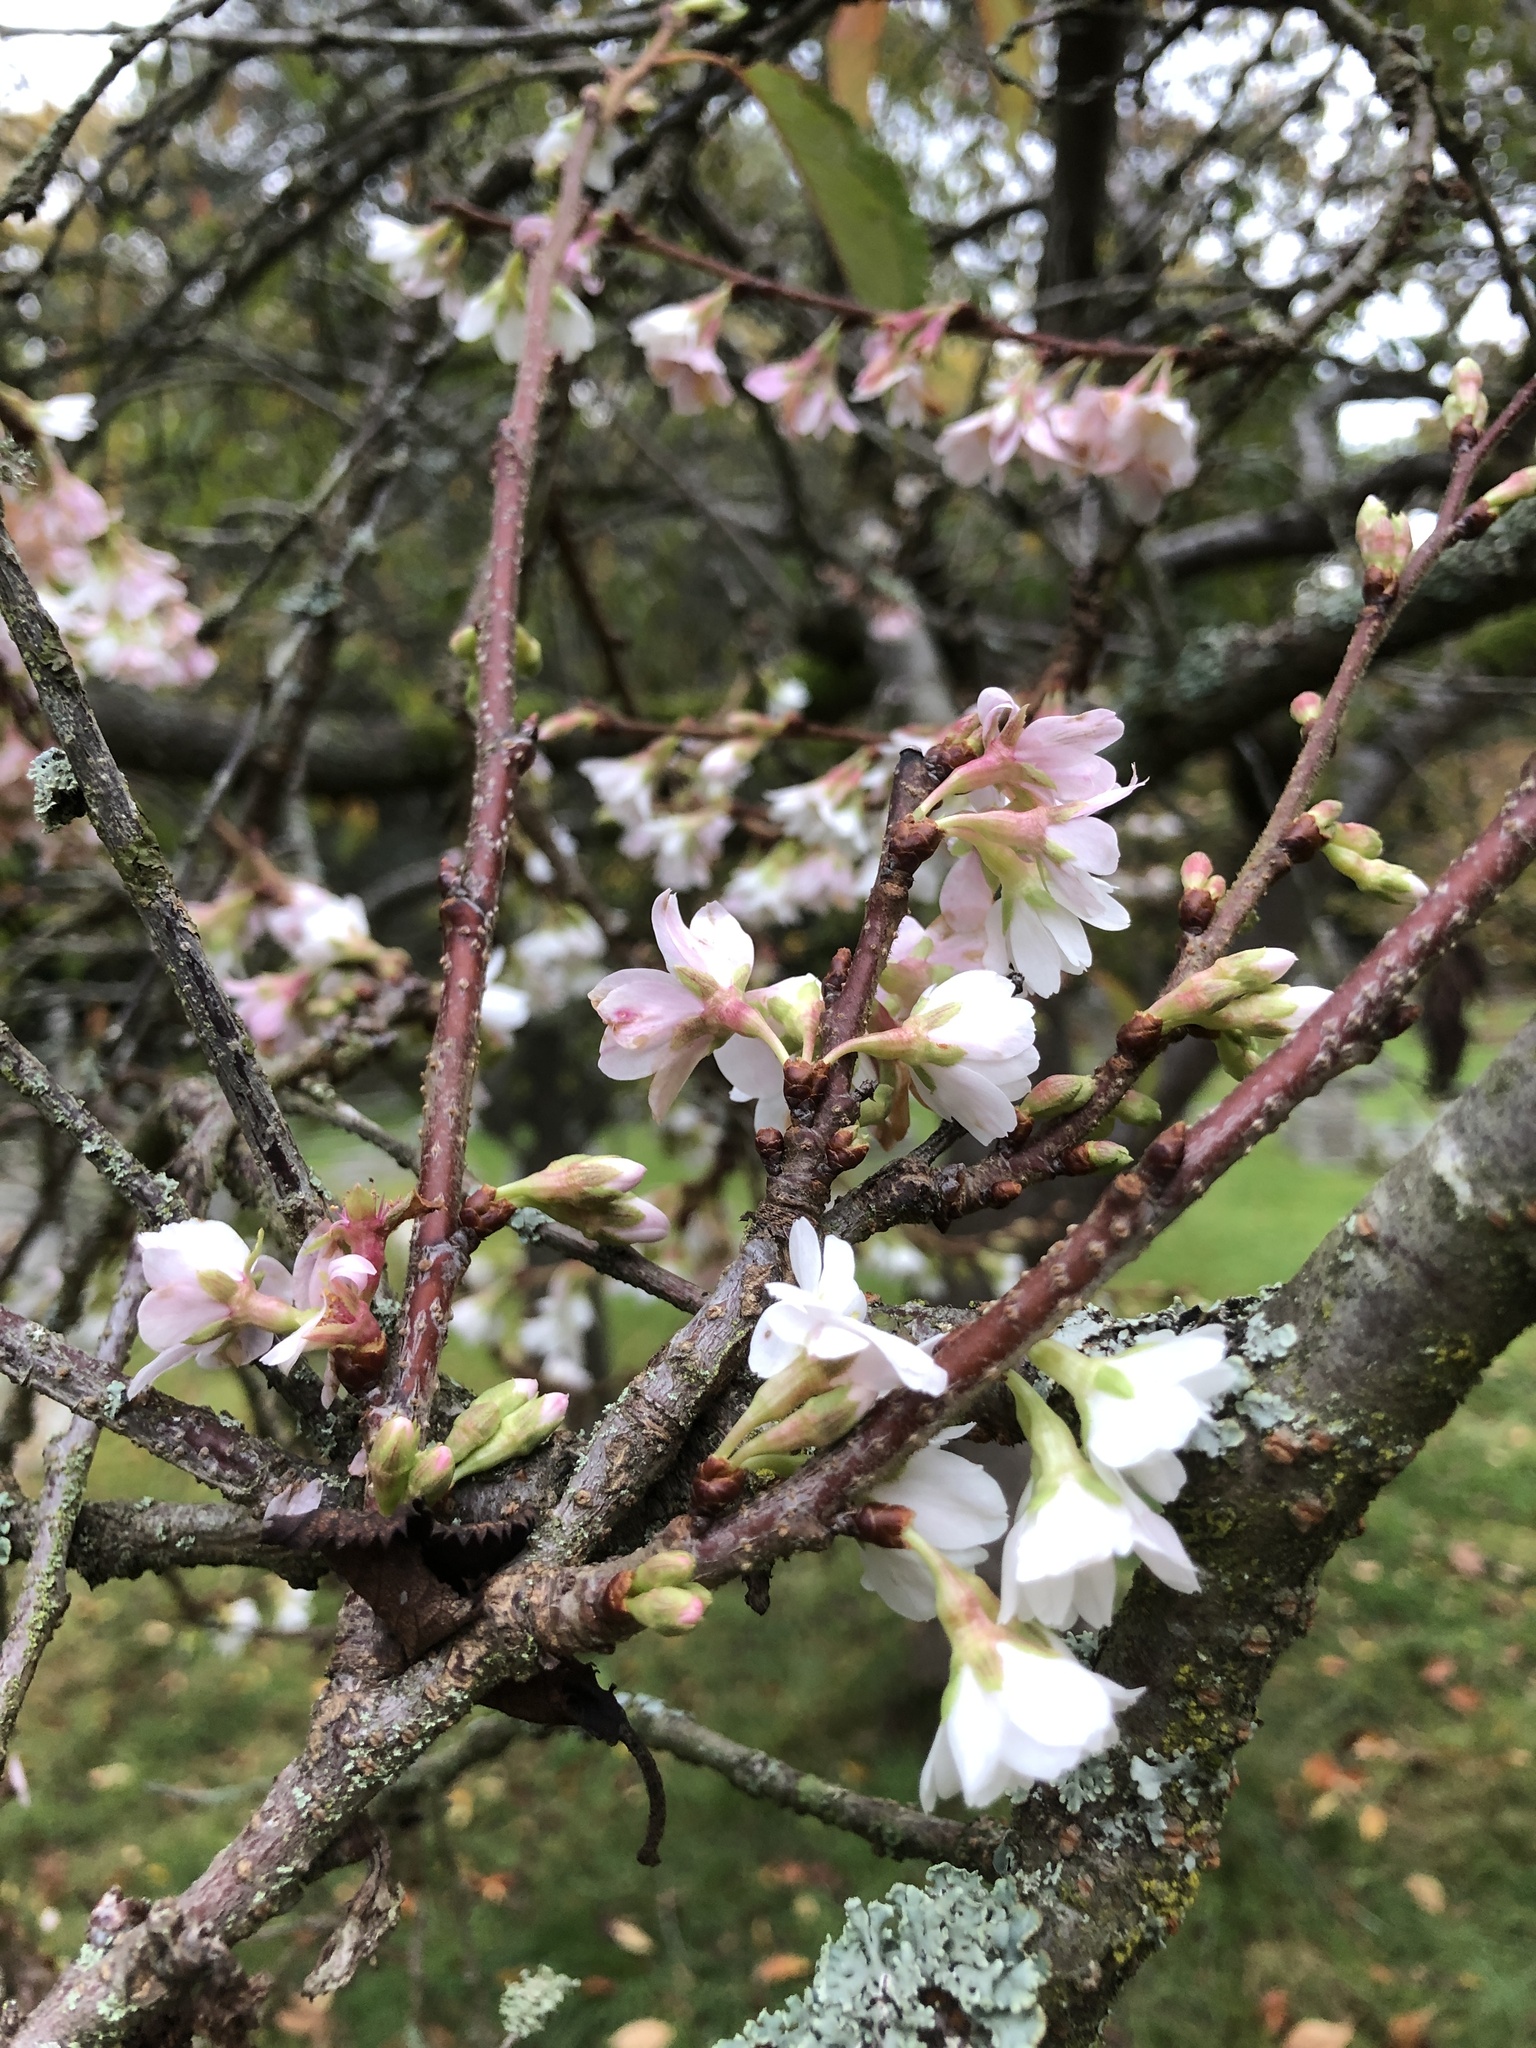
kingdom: Plantae
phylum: Tracheophyta
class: Magnoliopsida
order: Rosales
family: Rosaceae
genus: Prunus
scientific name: Prunus avium
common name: Sweet cherry
